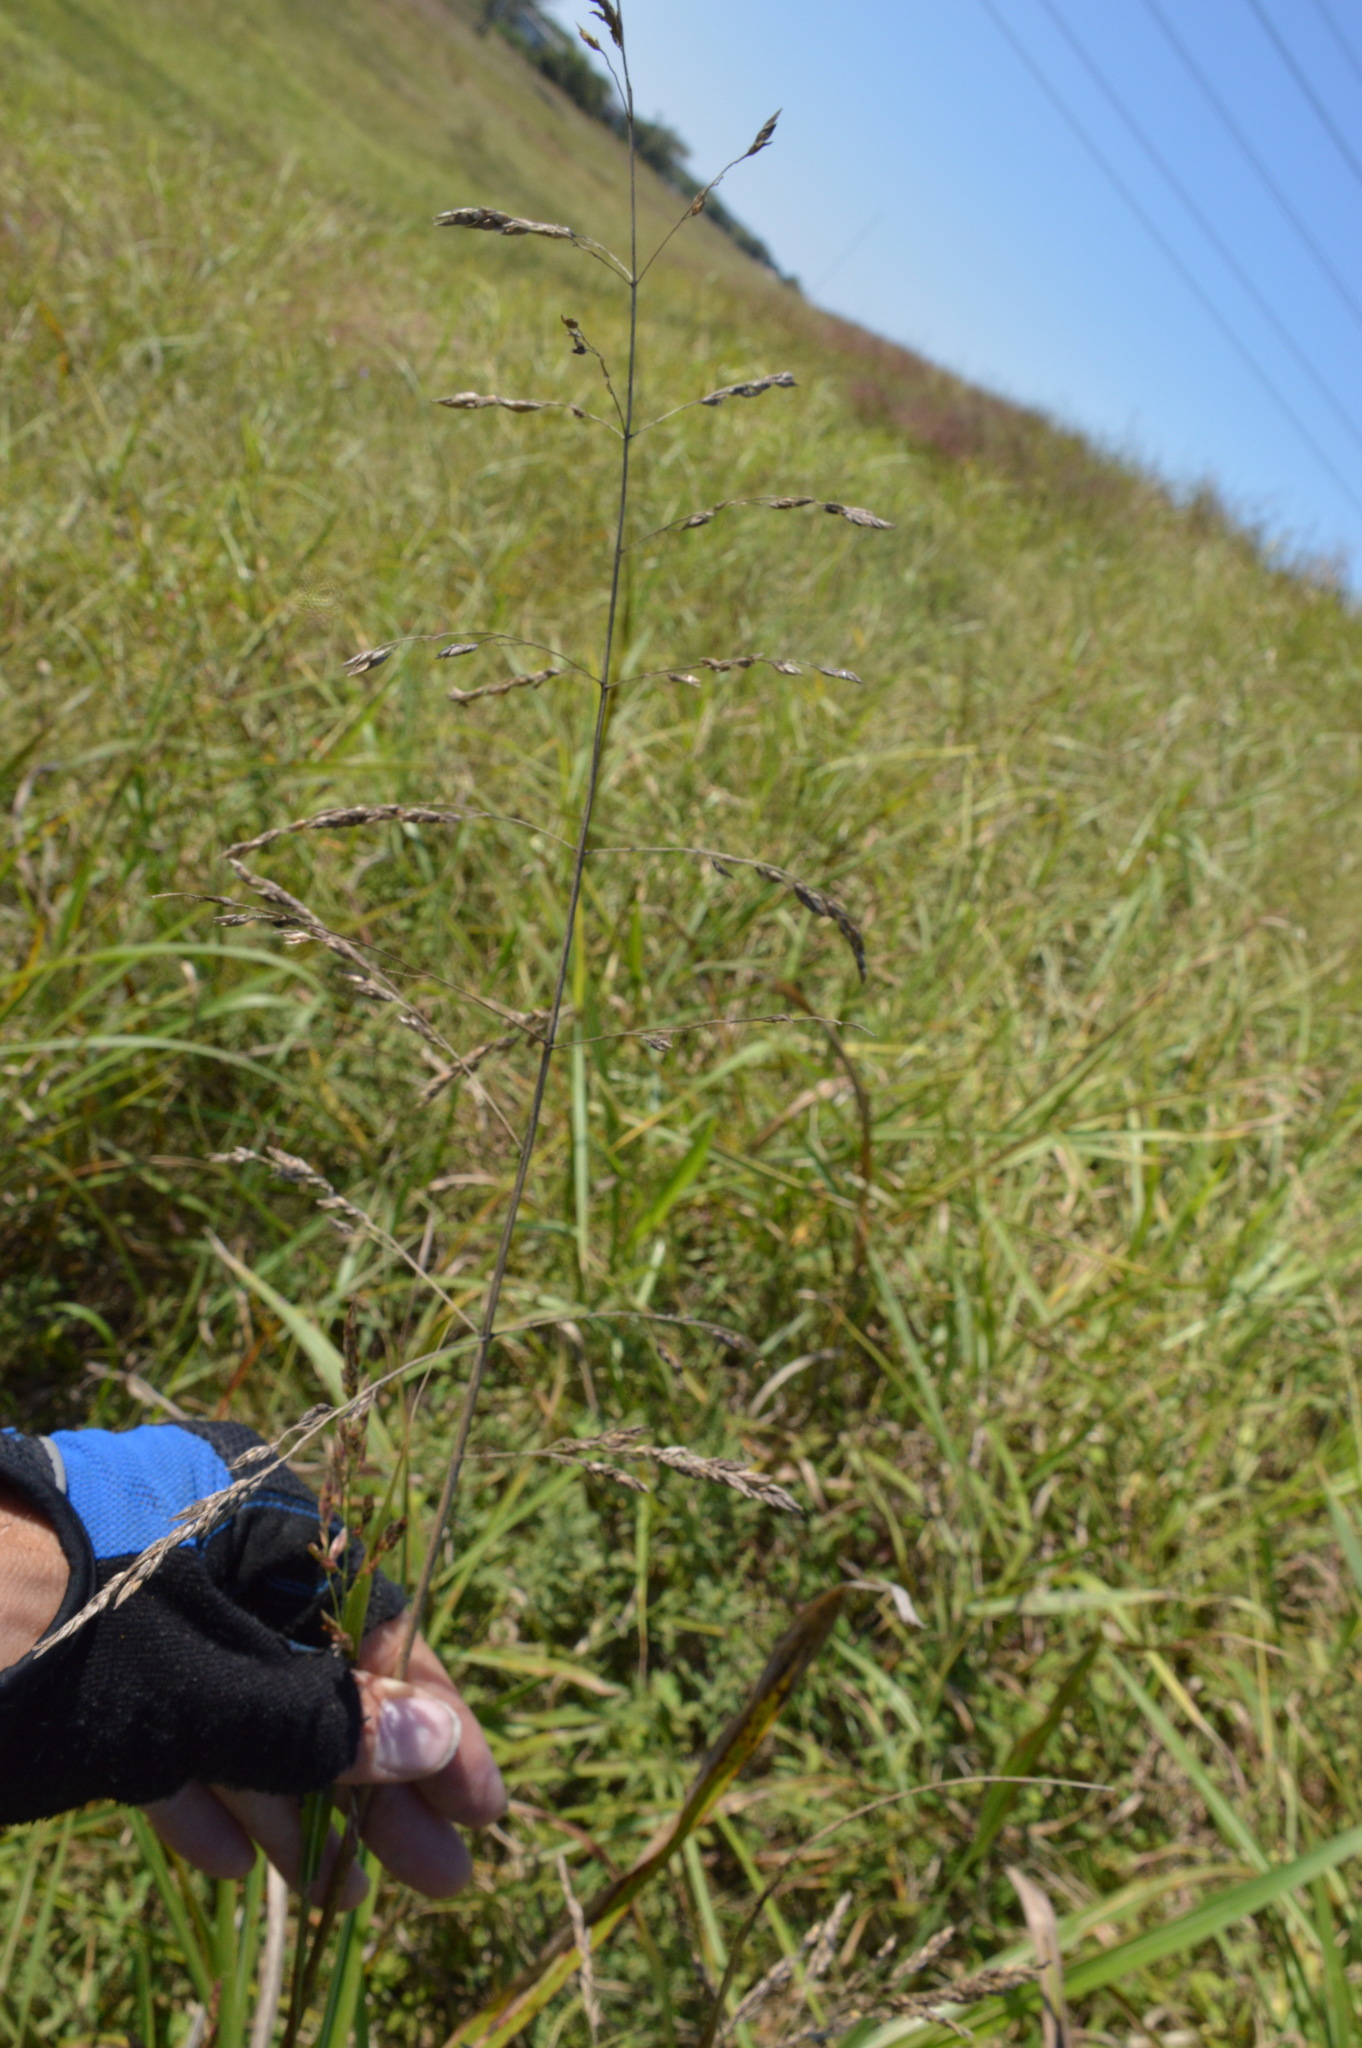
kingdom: Plantae
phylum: Tracheophyta
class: Liliopsida
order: Poales
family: Poaceae
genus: Sorghum
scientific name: Sorghum halepense
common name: Johnson-grass
